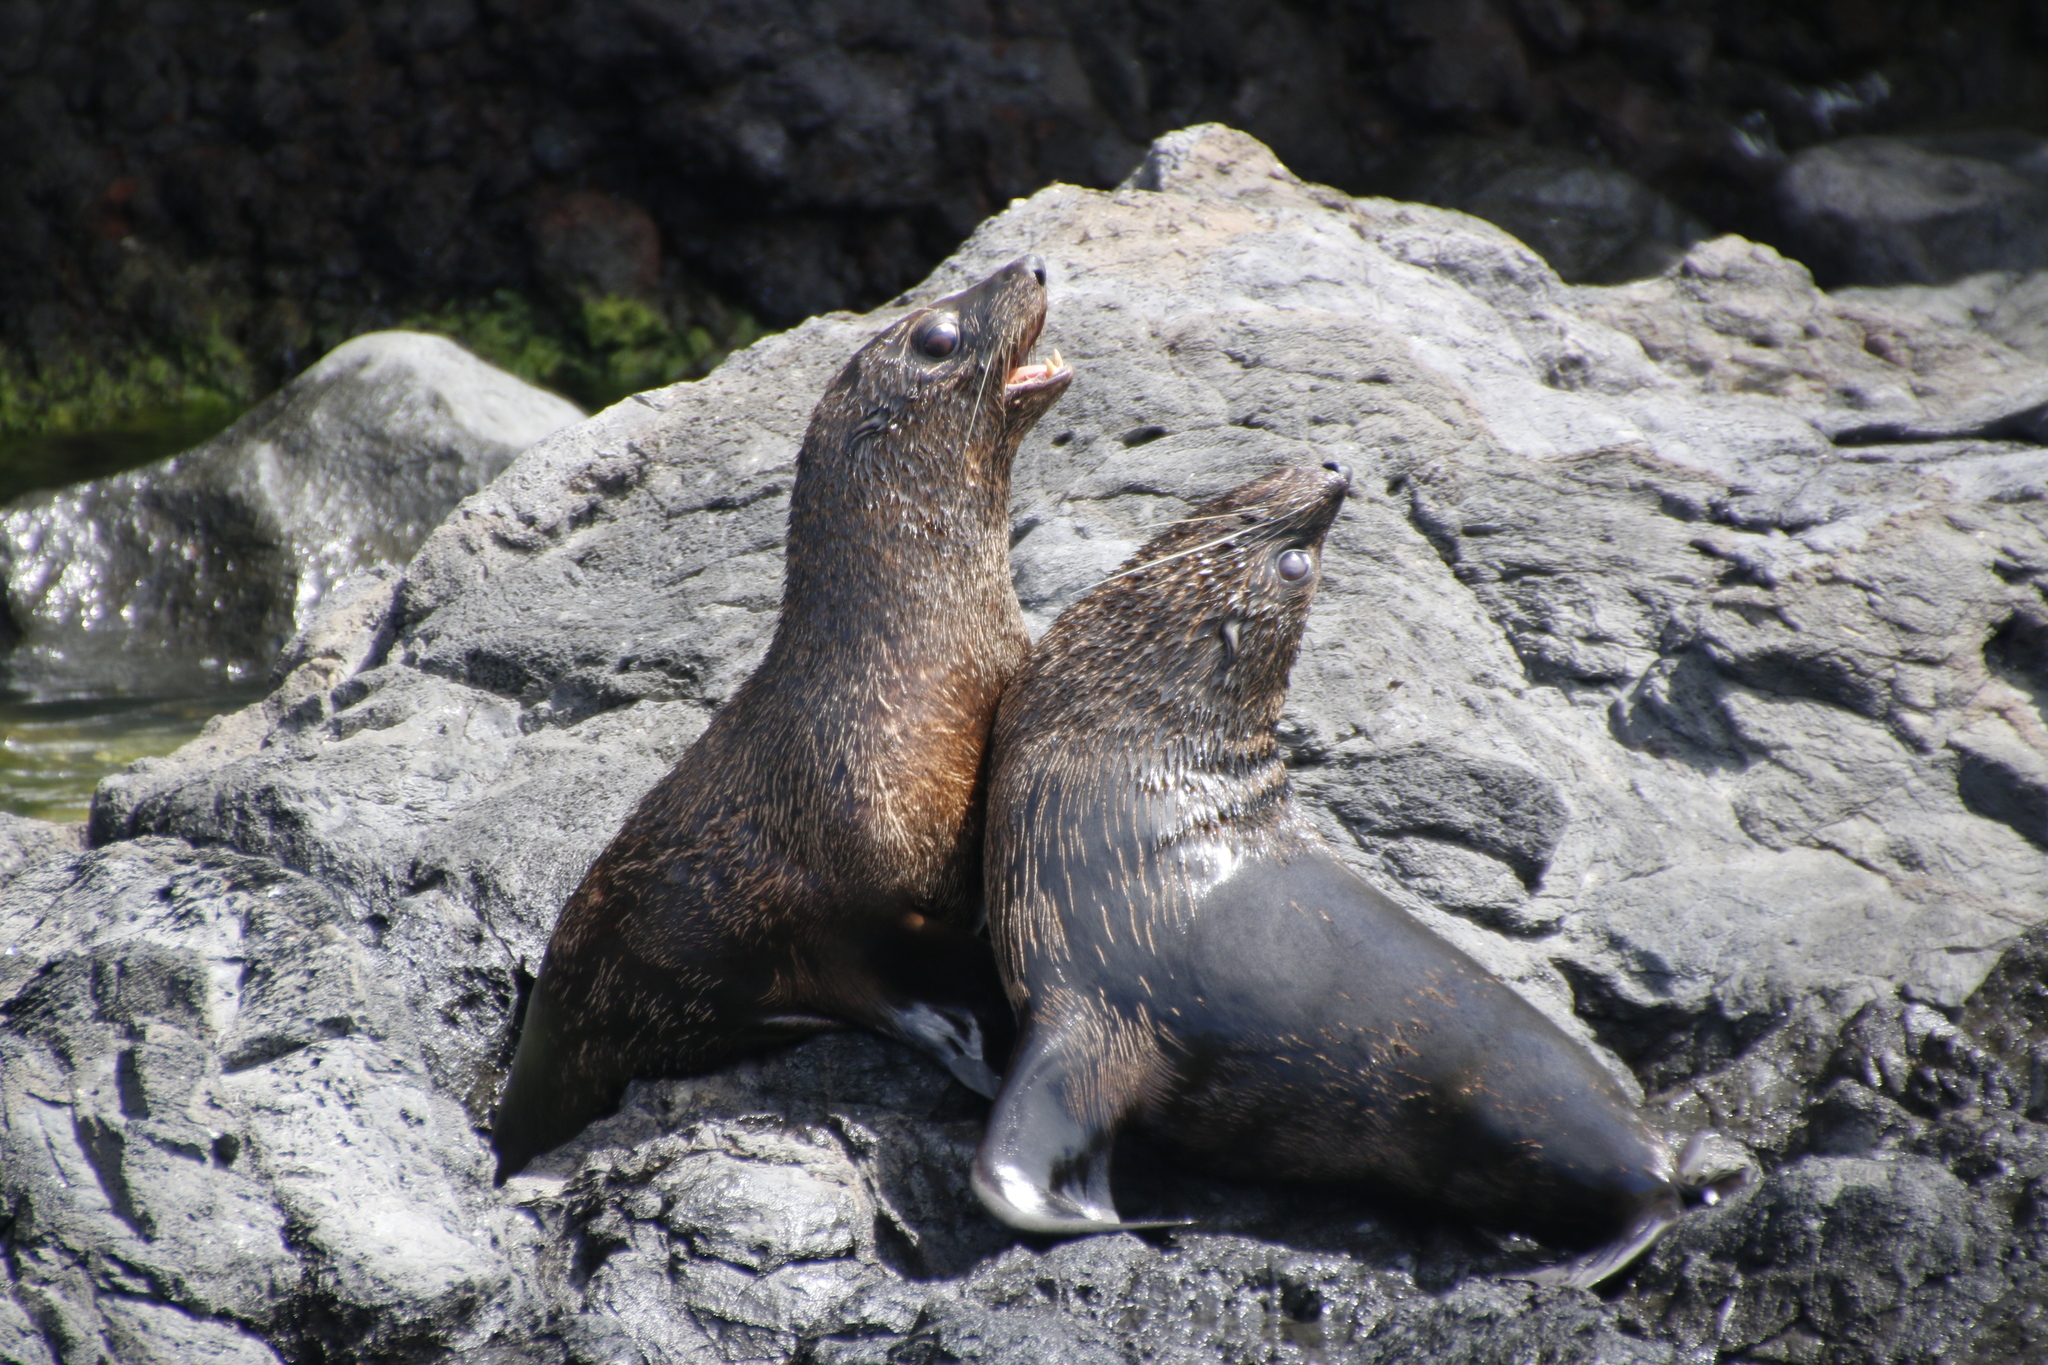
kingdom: Animalia
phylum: Chordata
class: Mammalia
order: Carnivora
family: Otariidae
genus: Arctocephalus
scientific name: Arctocephalus forsteri
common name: New zealand fur seal
